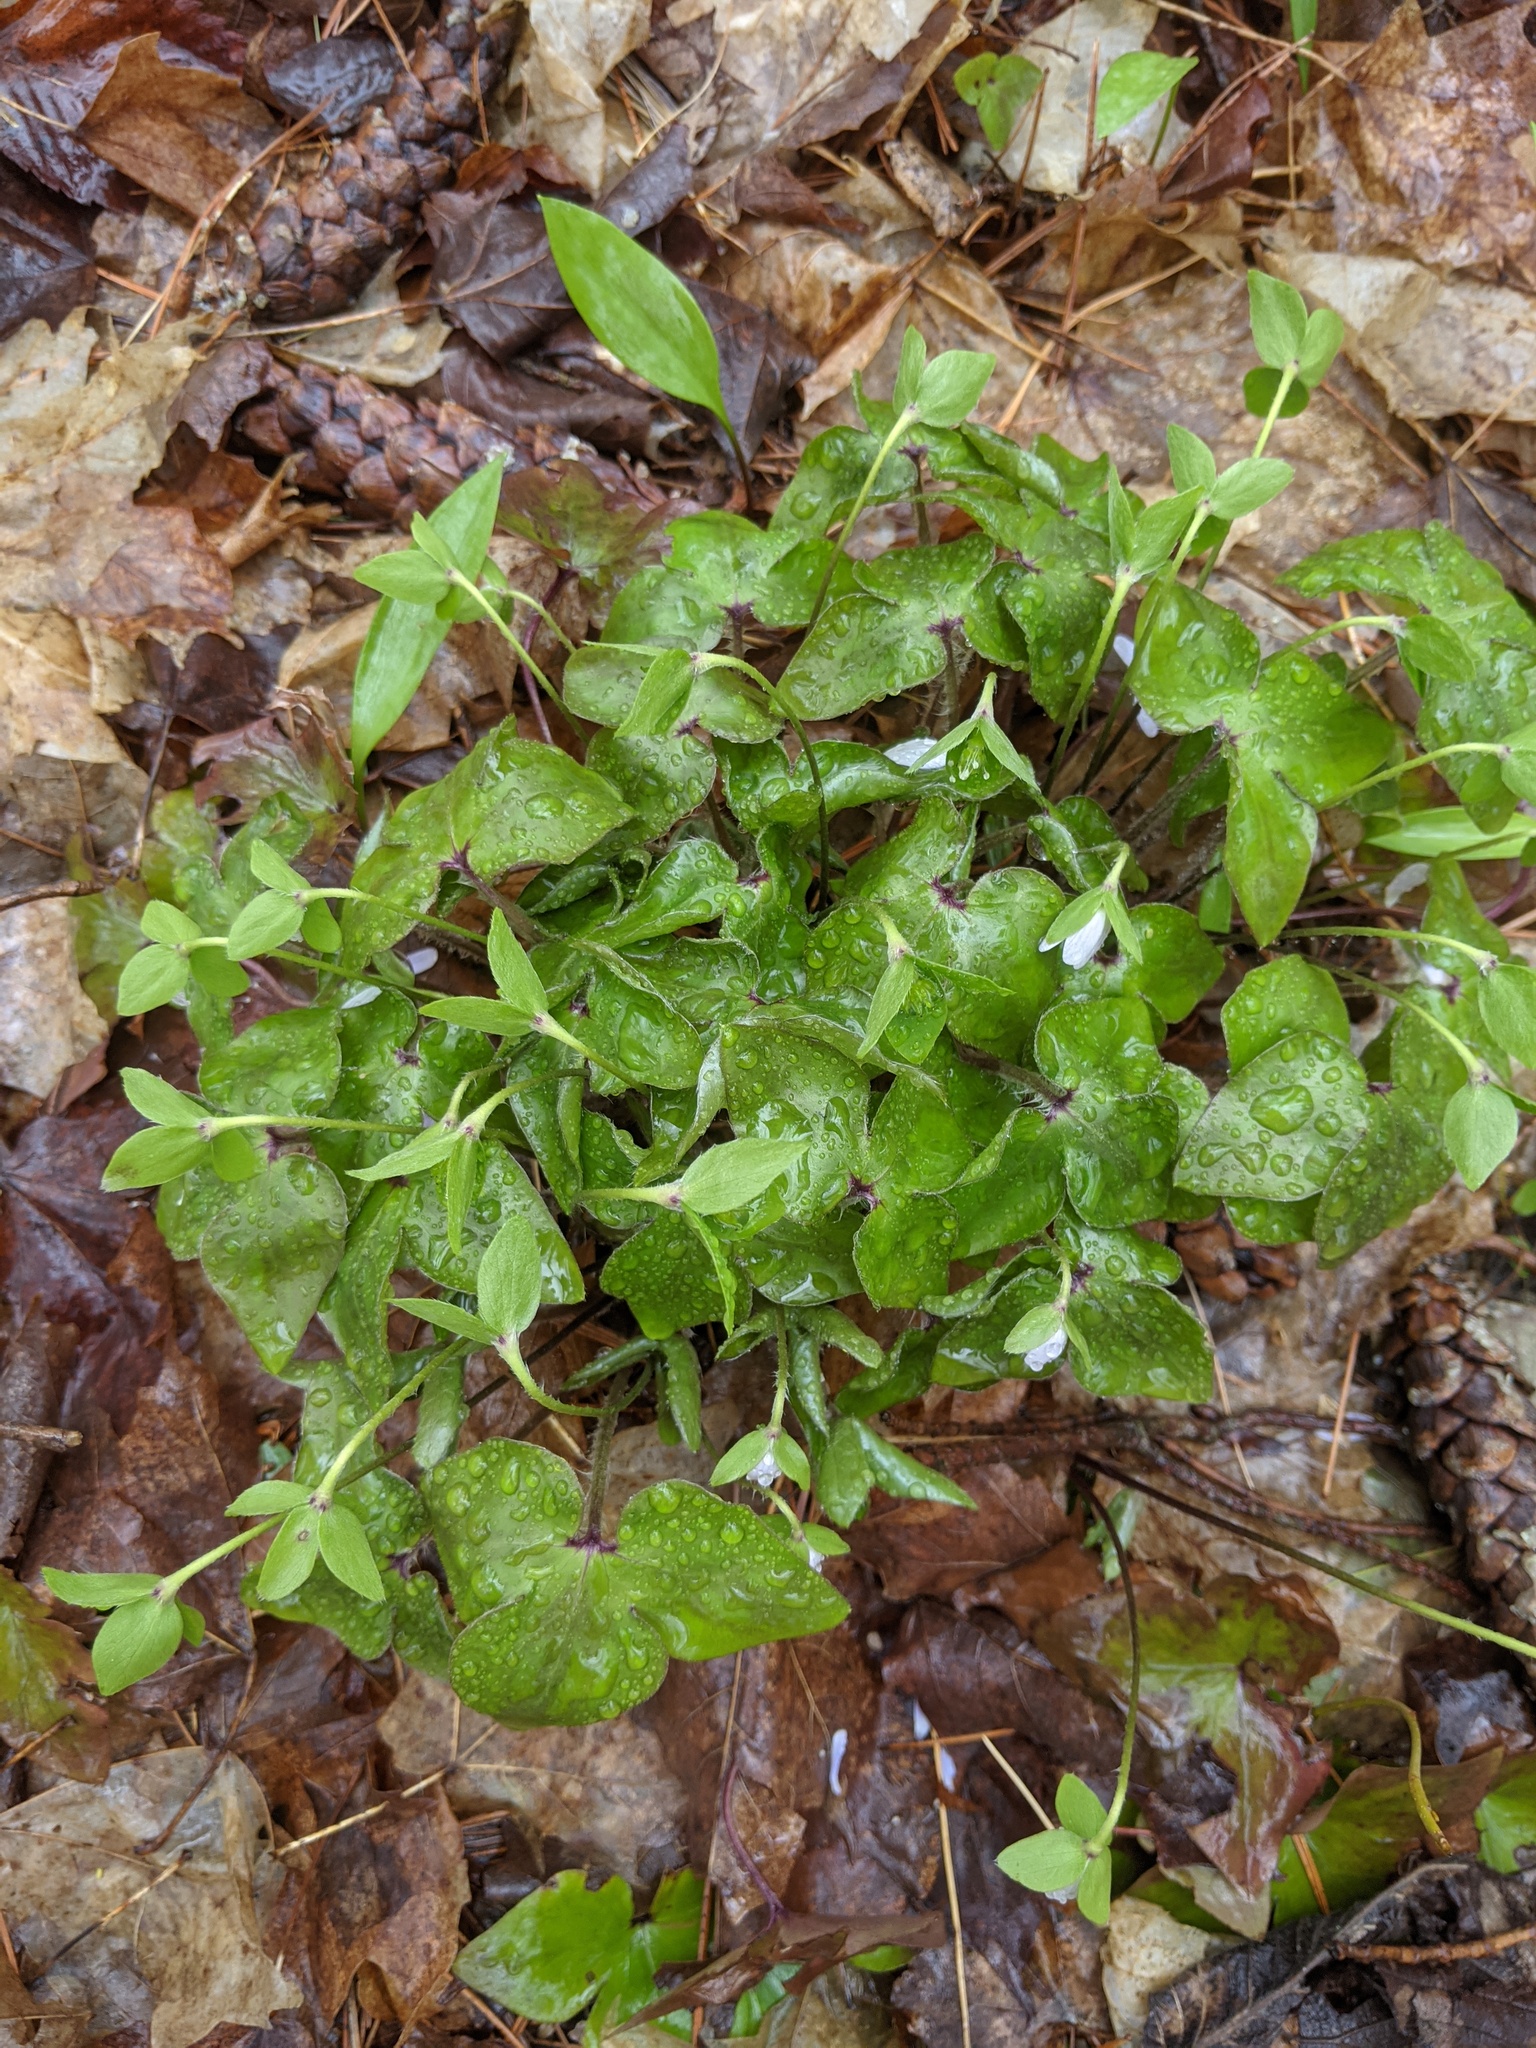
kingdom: Plantae
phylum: Tracheophyta
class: Magnoliopsida
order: Ranunculales
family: Ranunculaceae
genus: Hepatica
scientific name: Hepatica acutiloba
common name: Sharp-lobed hepatica
